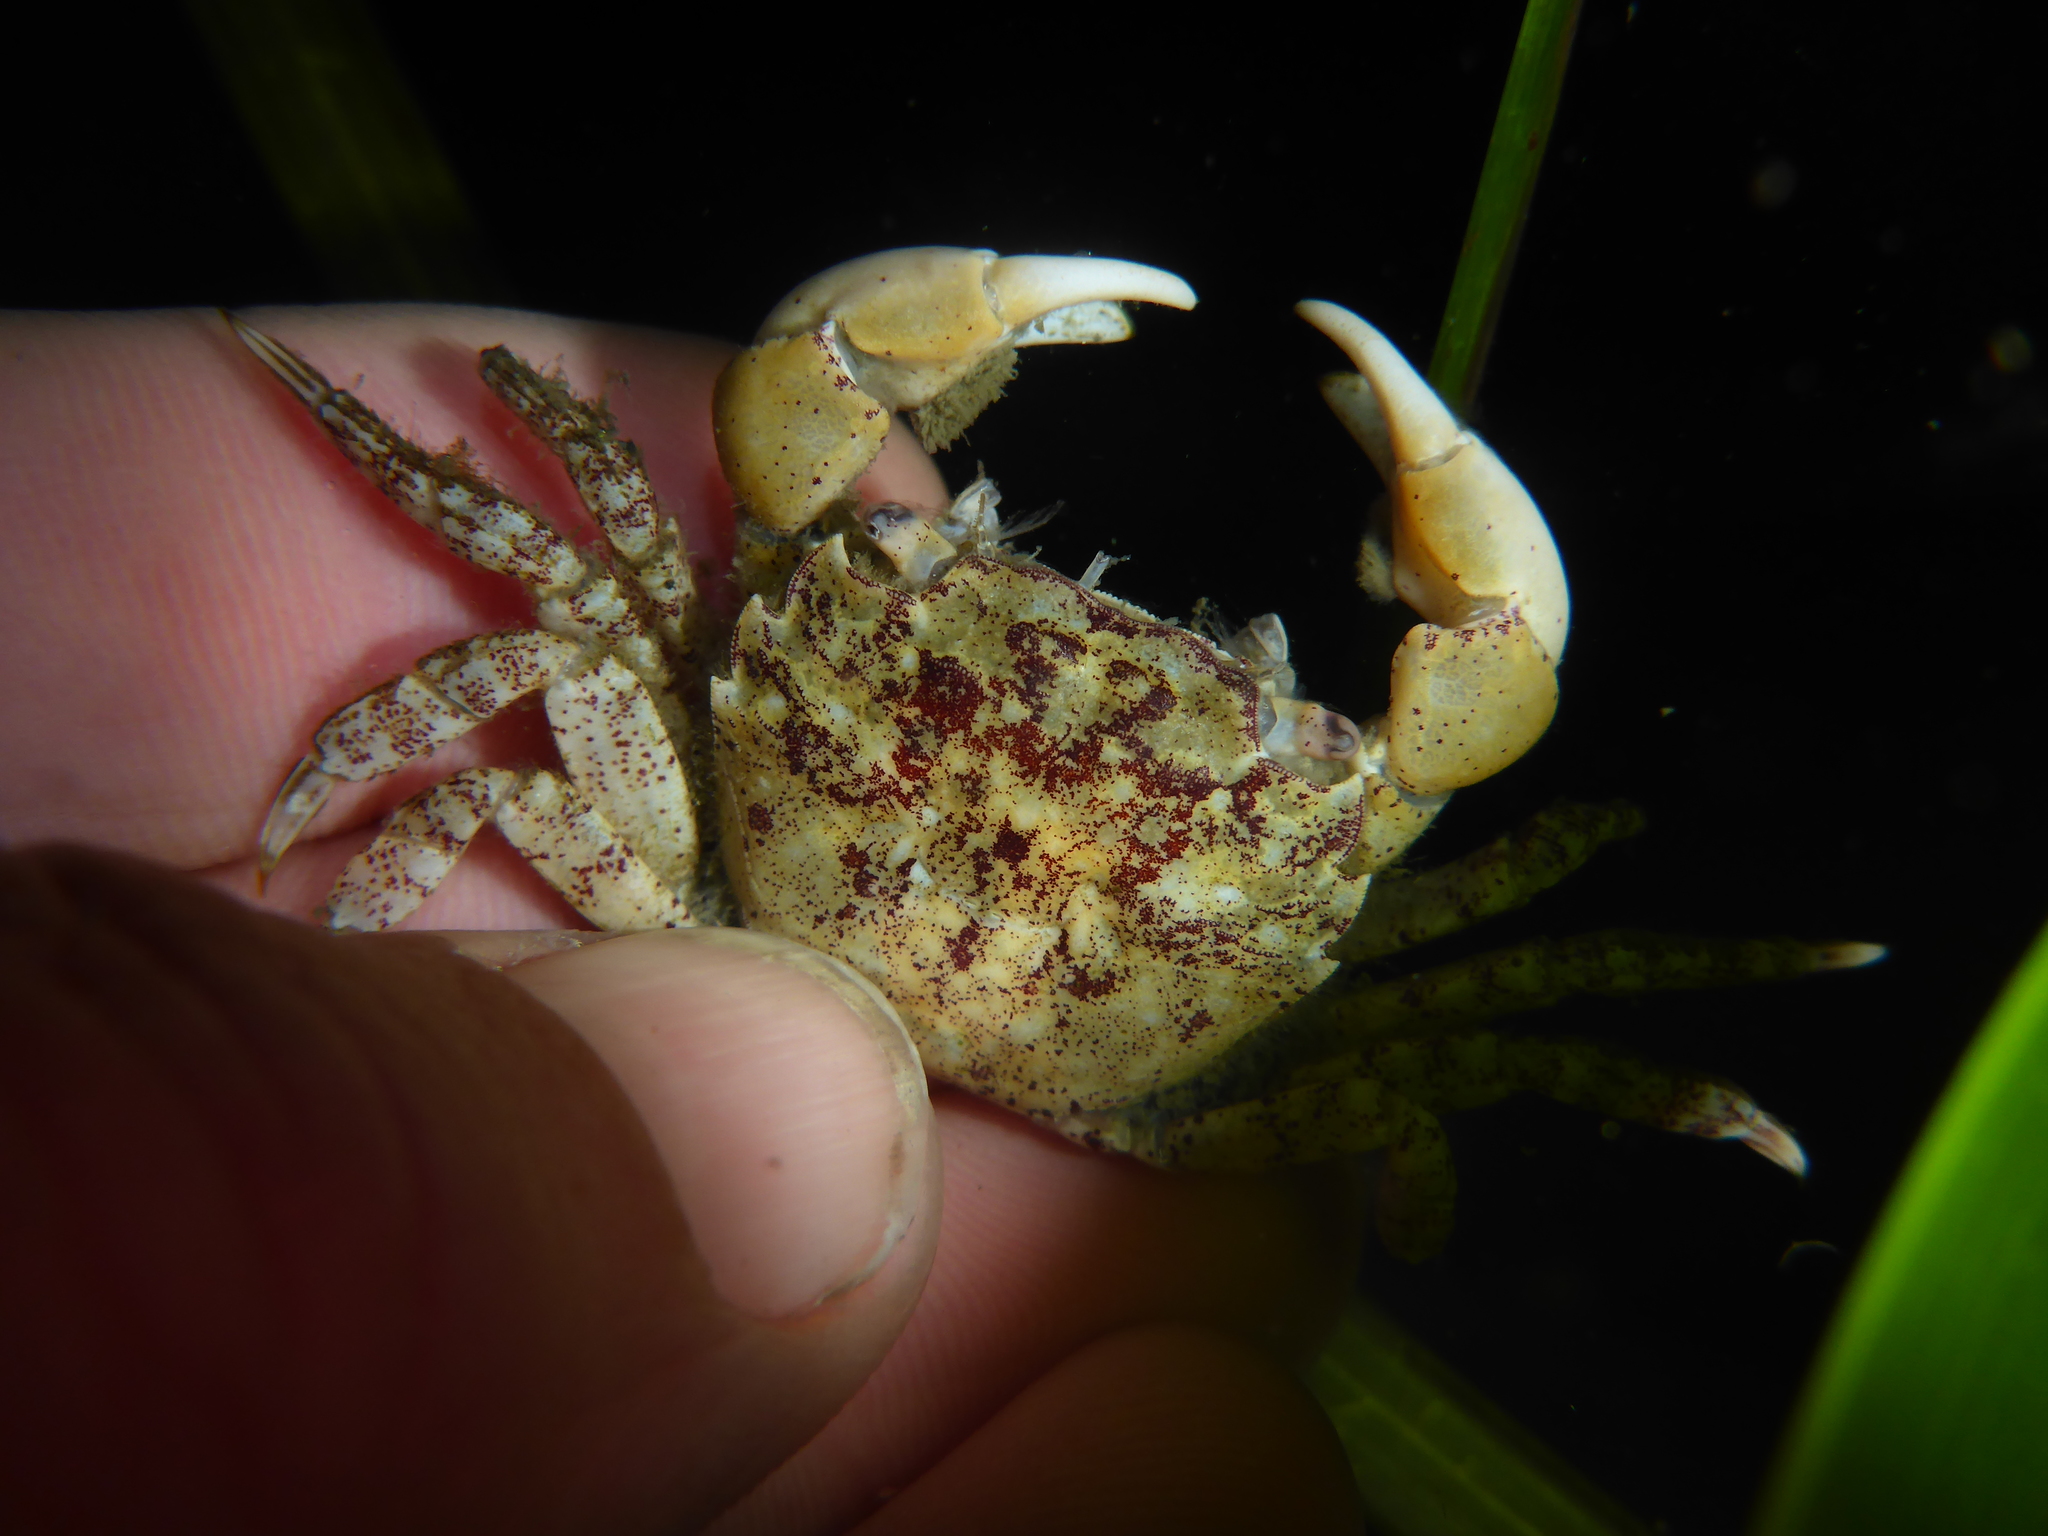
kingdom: Animalia
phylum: Arthropoda
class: Malacostraca
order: Decapoda
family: Varunidae
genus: Hemigrapsus
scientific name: Hemigrapsus oregonensis
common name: Yellow shore crab
